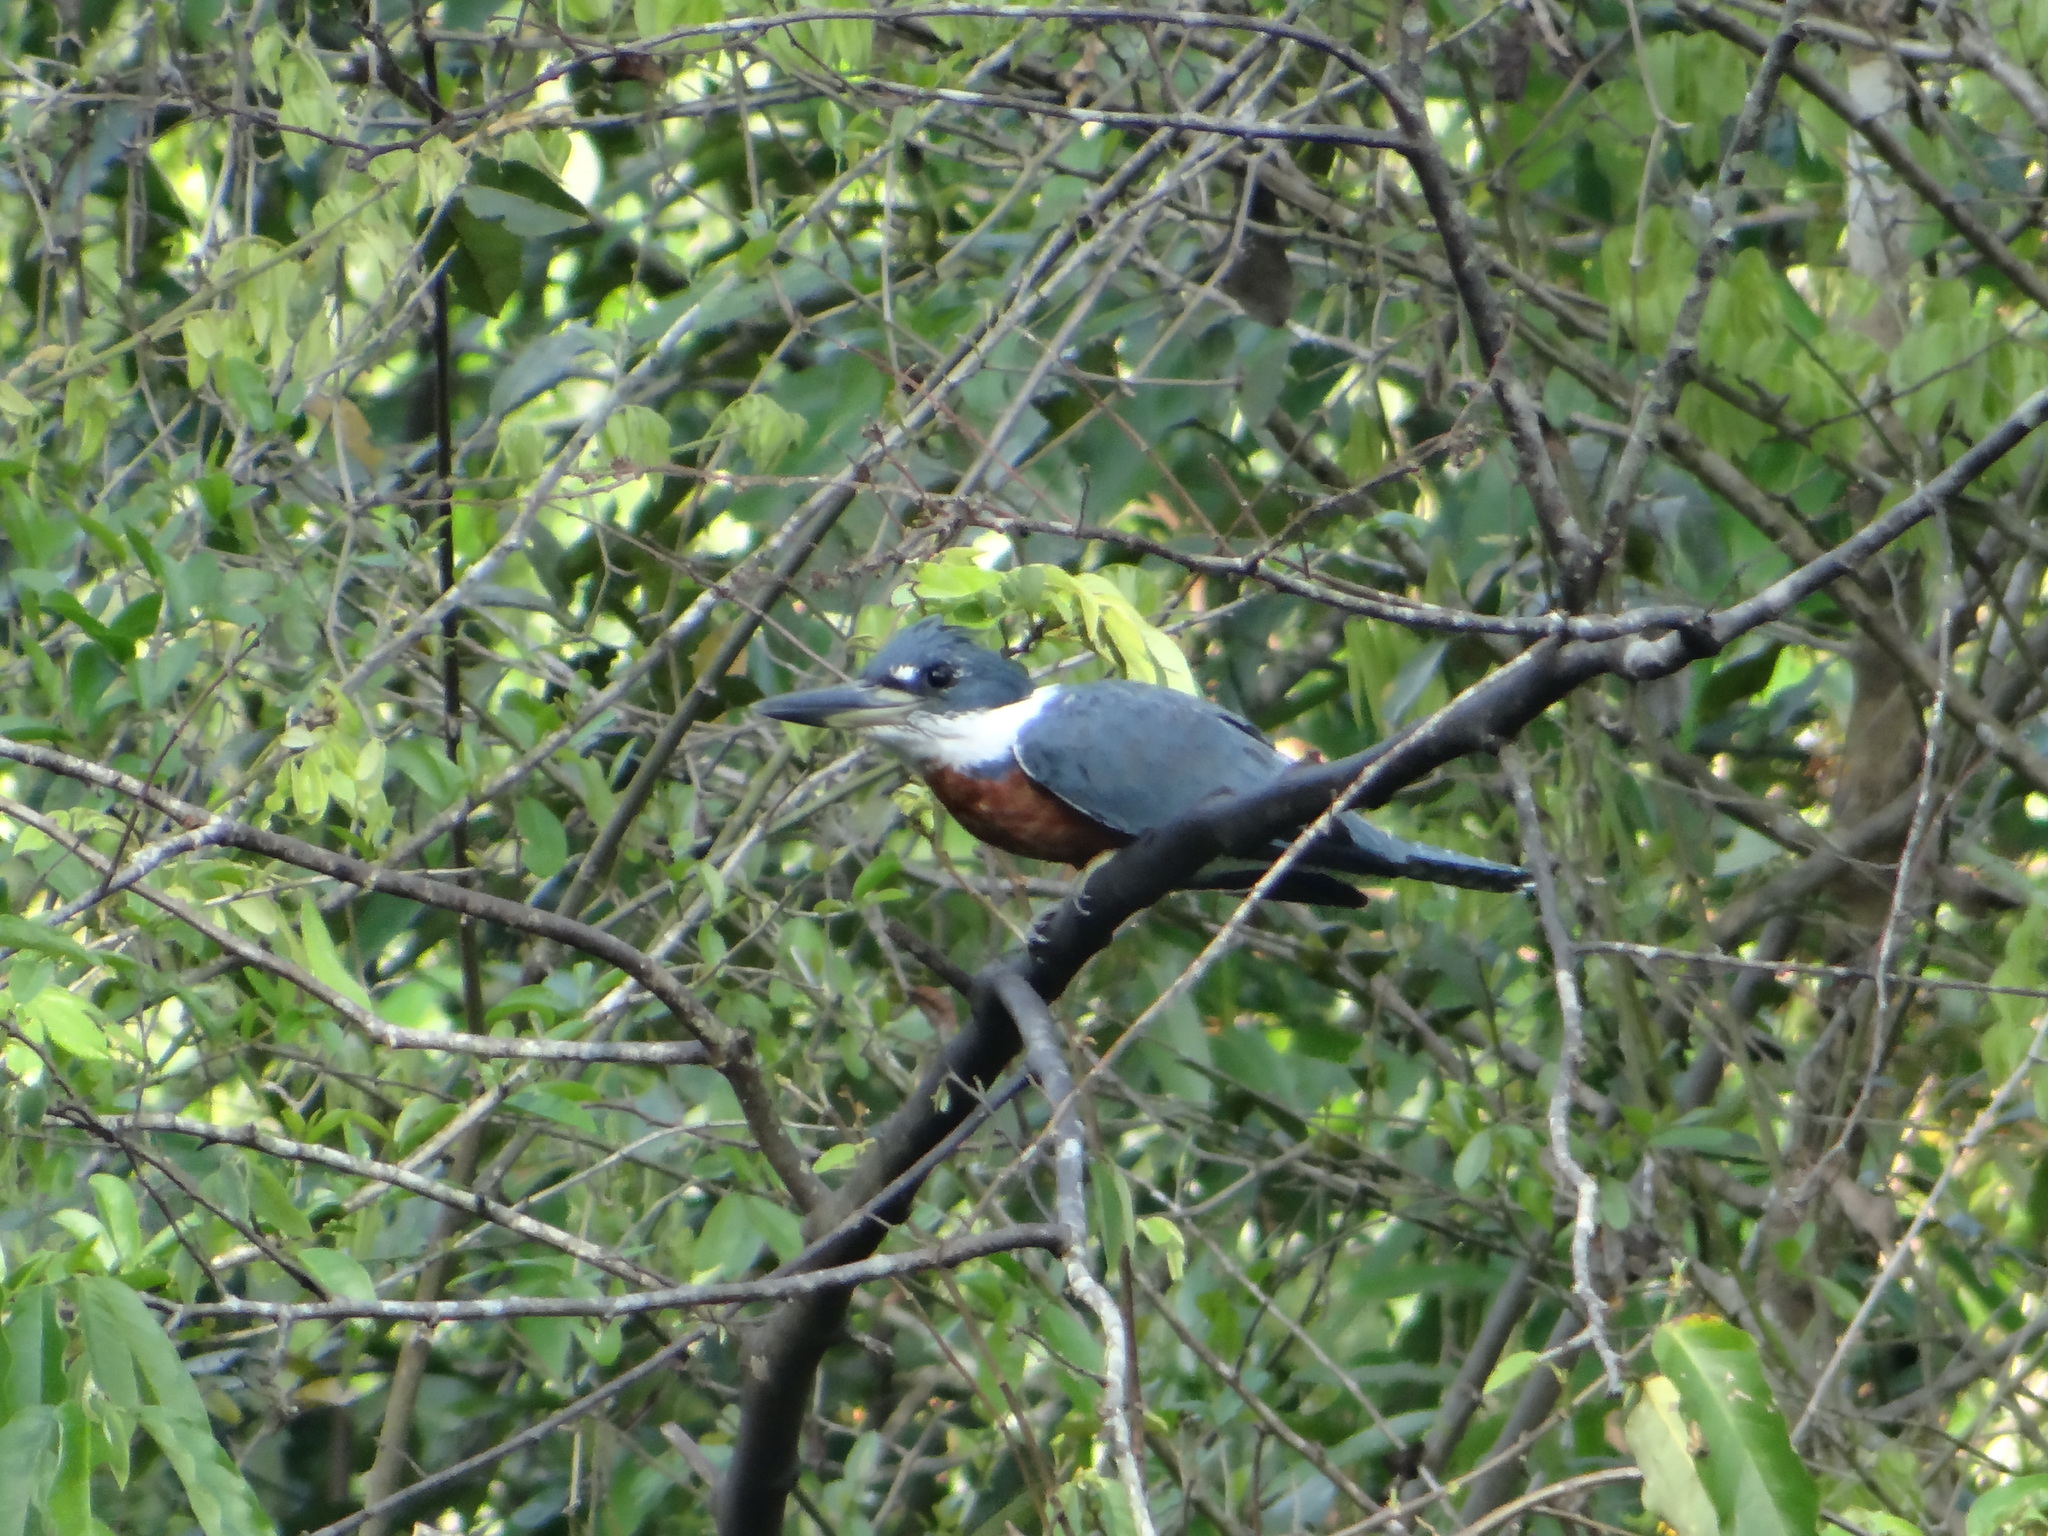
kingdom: Animalia
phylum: Chordata
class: Aves
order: Coraciiformes
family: Alcedinidae
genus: Megaceryle
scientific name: Megaceryle torquata
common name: Ringed kingfisher
